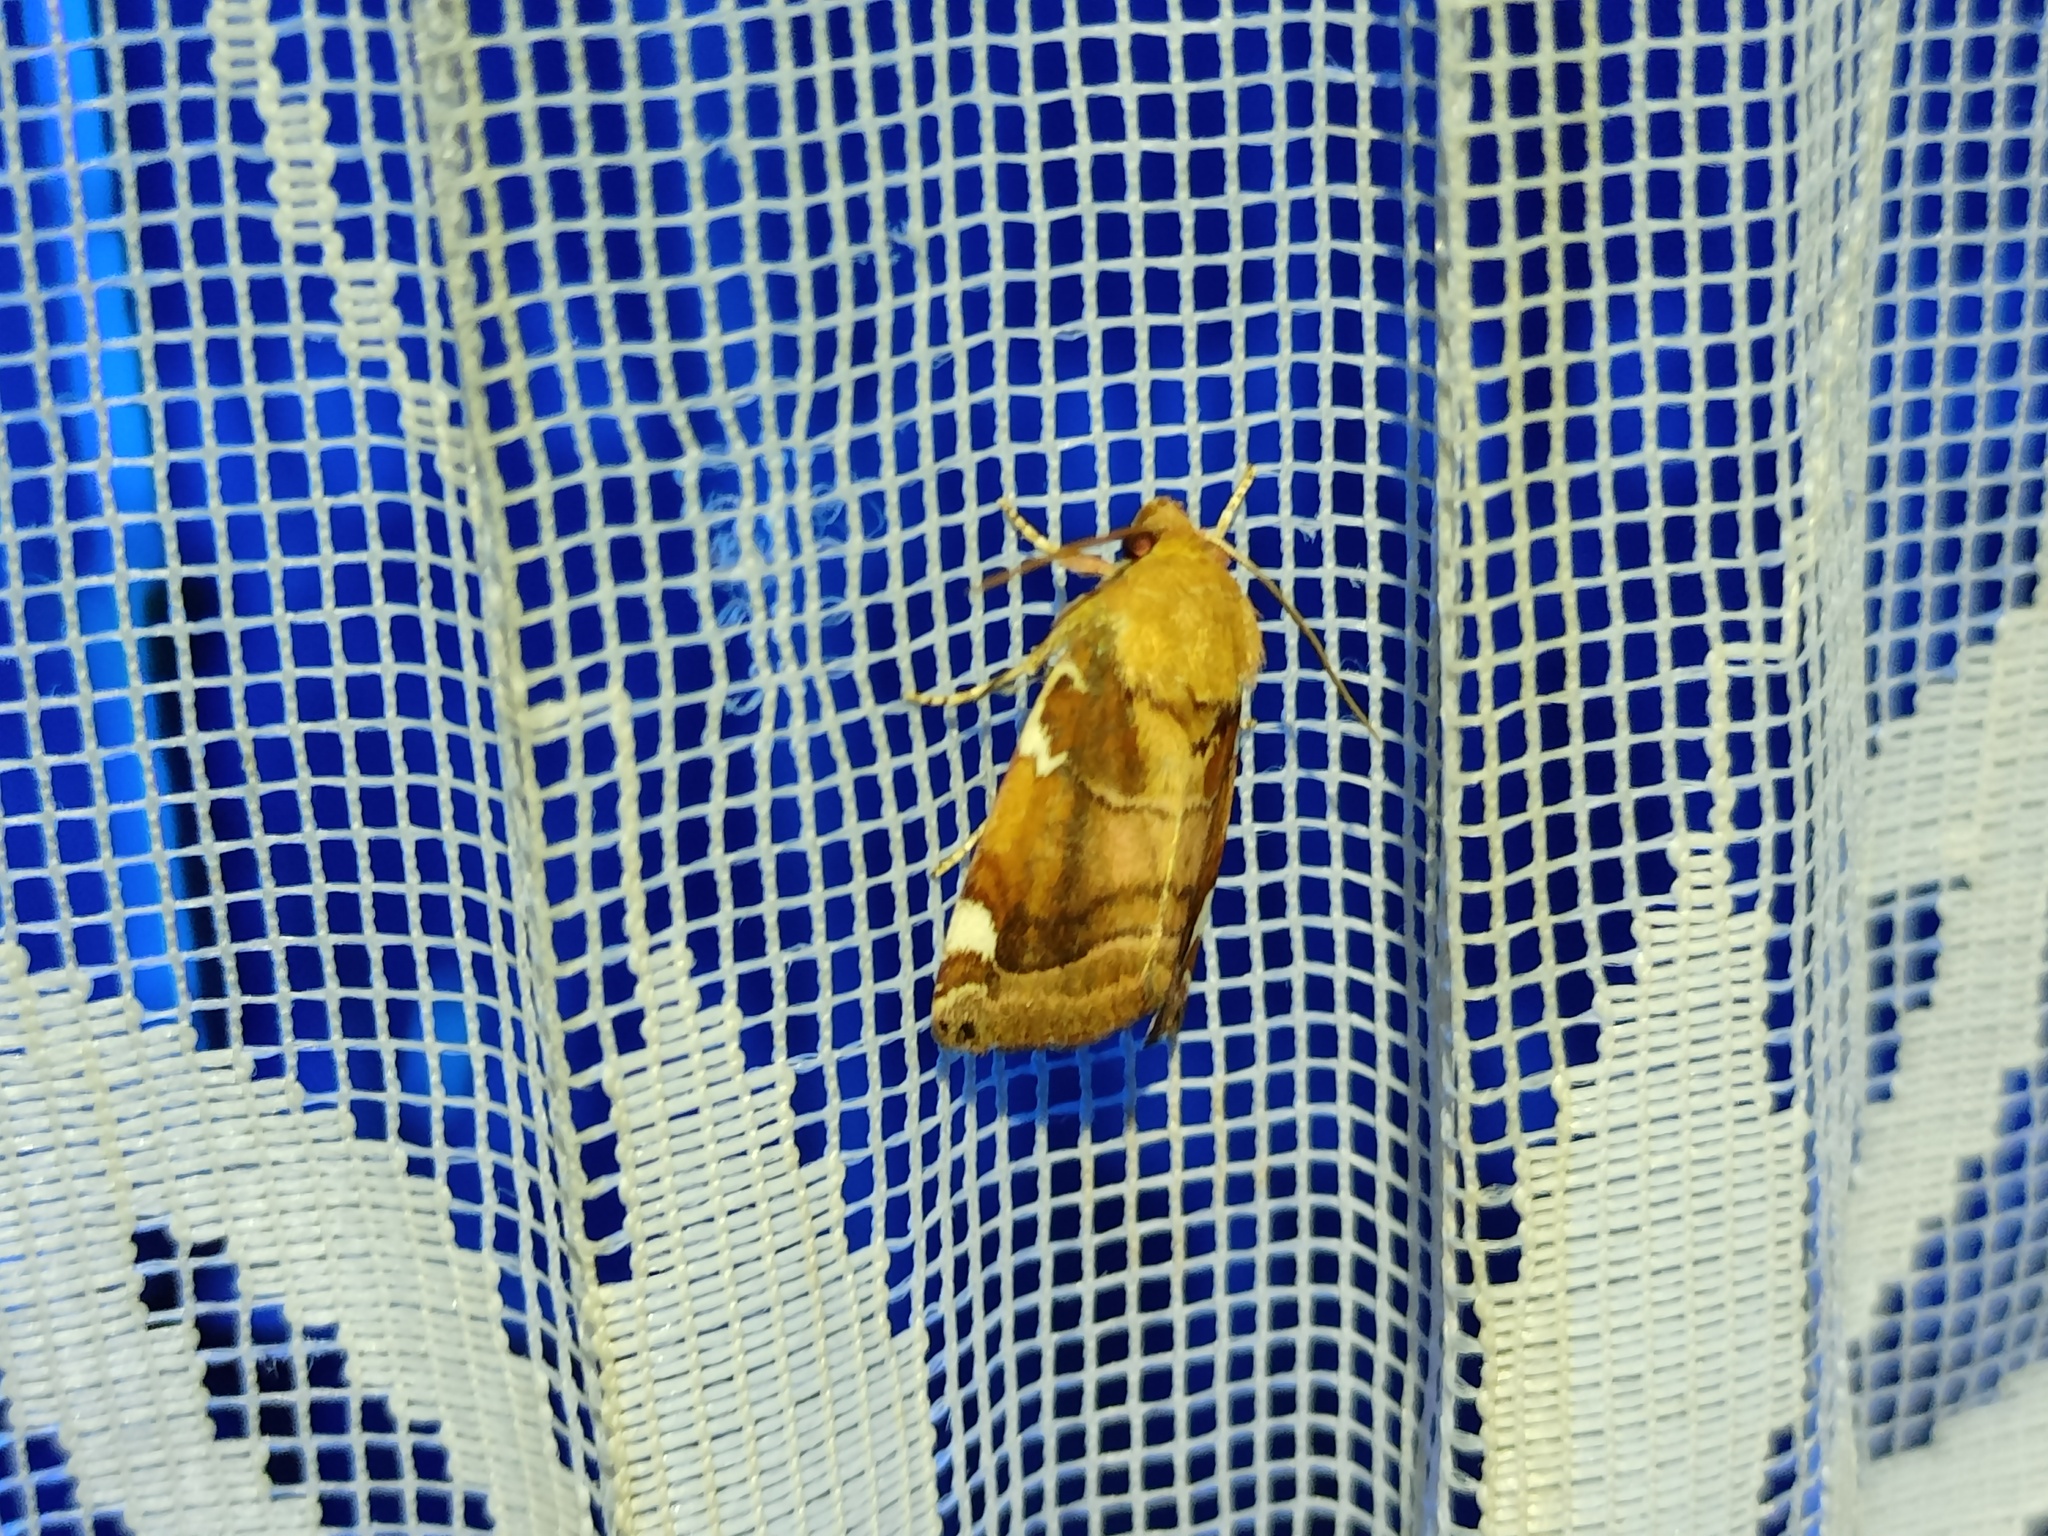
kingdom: Animalia
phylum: Arthropoda
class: Insecta
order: Lepidoptera
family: Noctuidae
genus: Cosmia
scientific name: Cosmia diffinis
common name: White-spotted pinion
